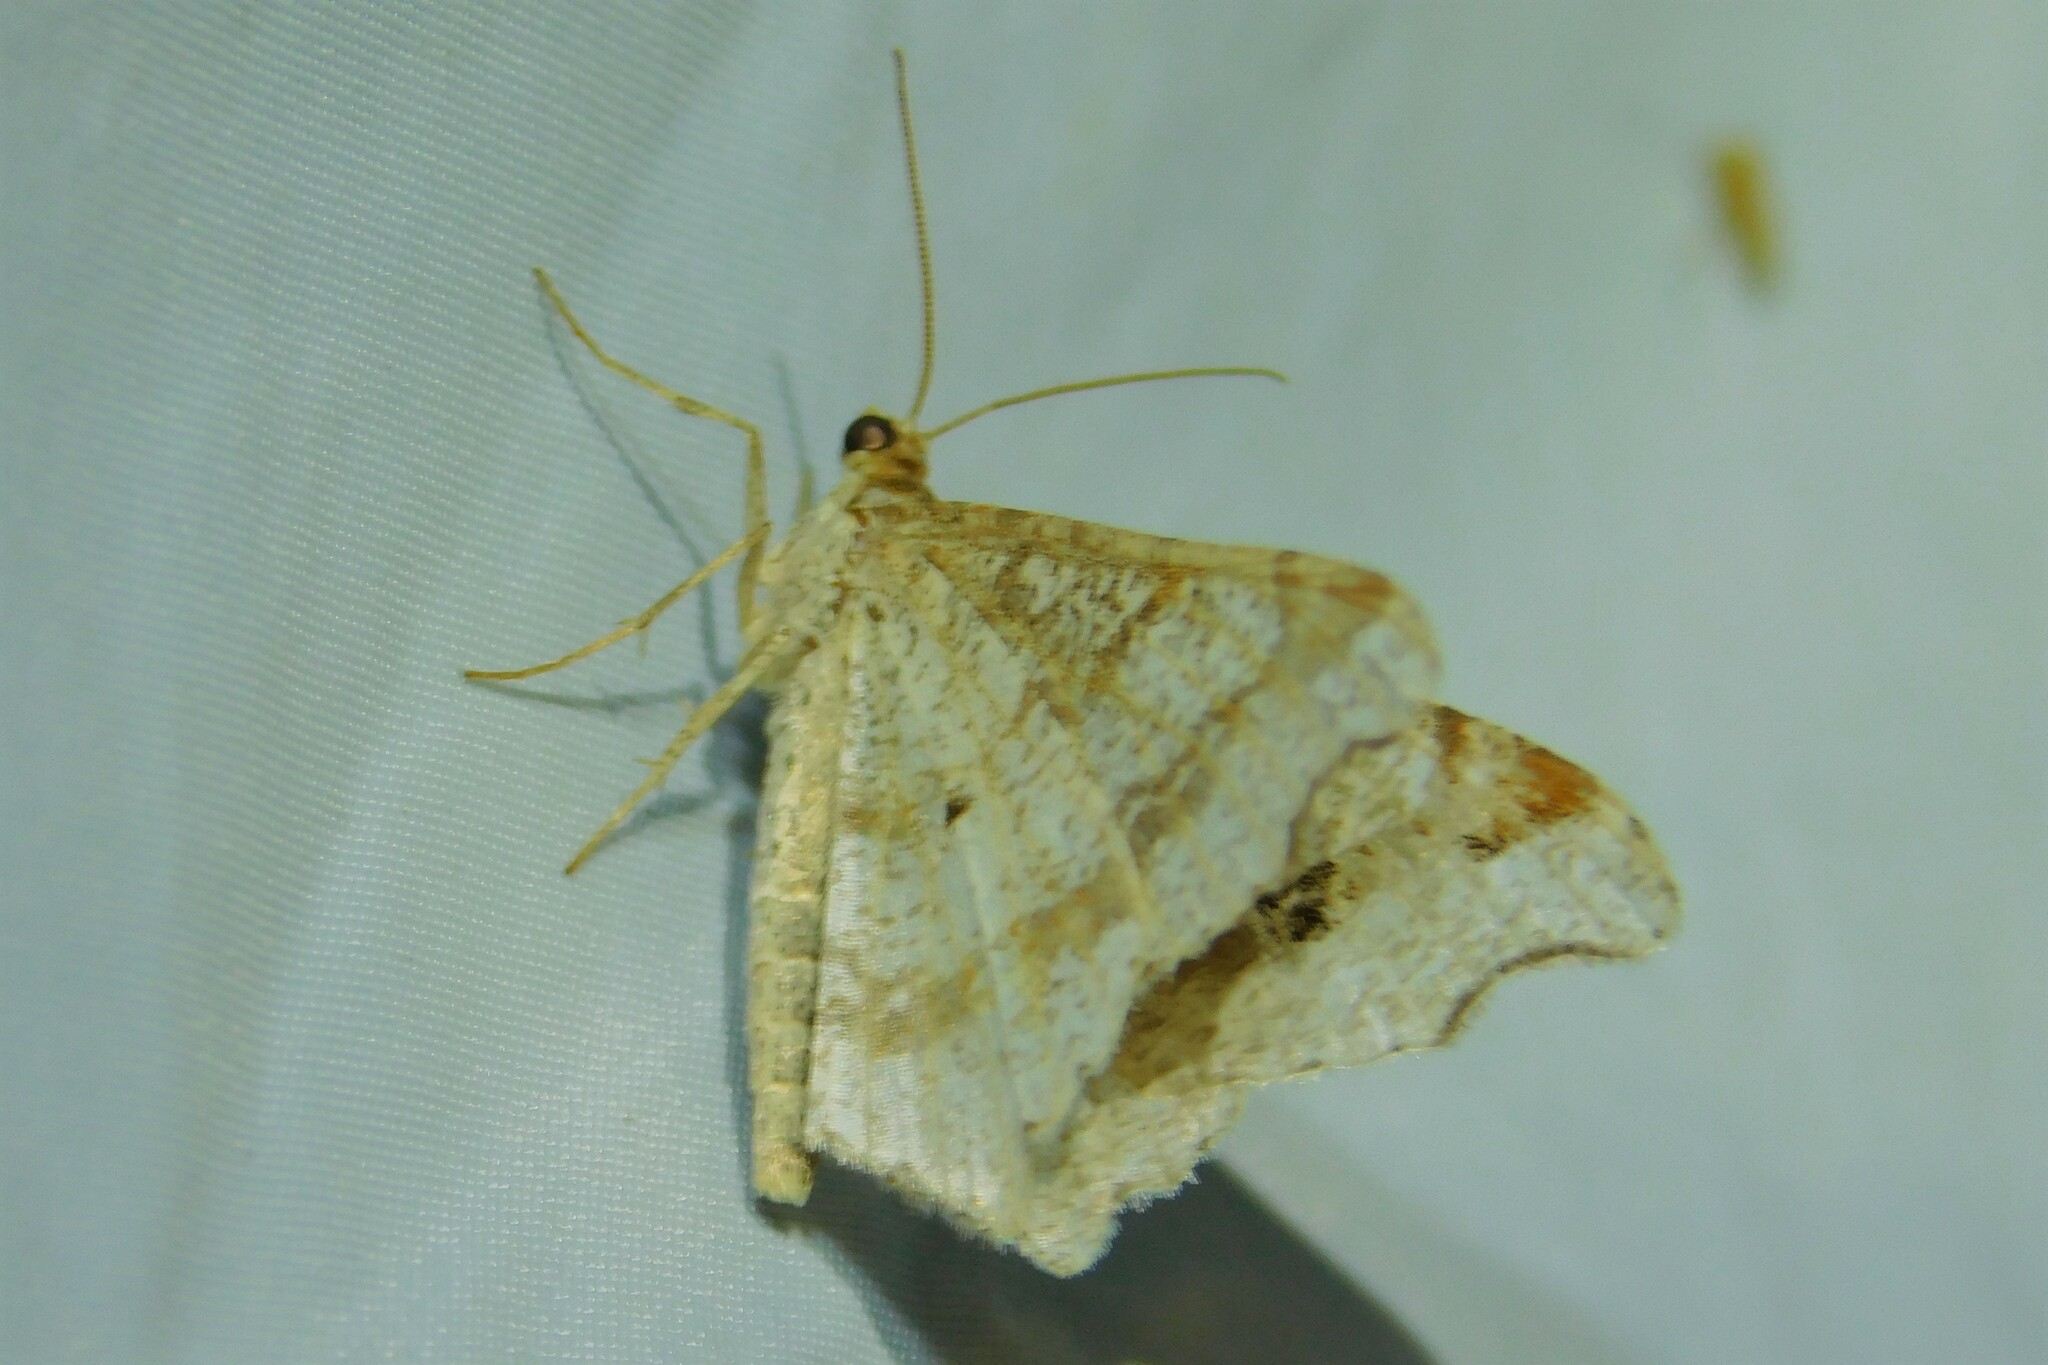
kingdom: Animalia
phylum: Arthropoda
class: Insecta
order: Lepidoptera
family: Geometridae
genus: Macaria
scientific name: Macaria alternata
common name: Sharp-angled peacock
